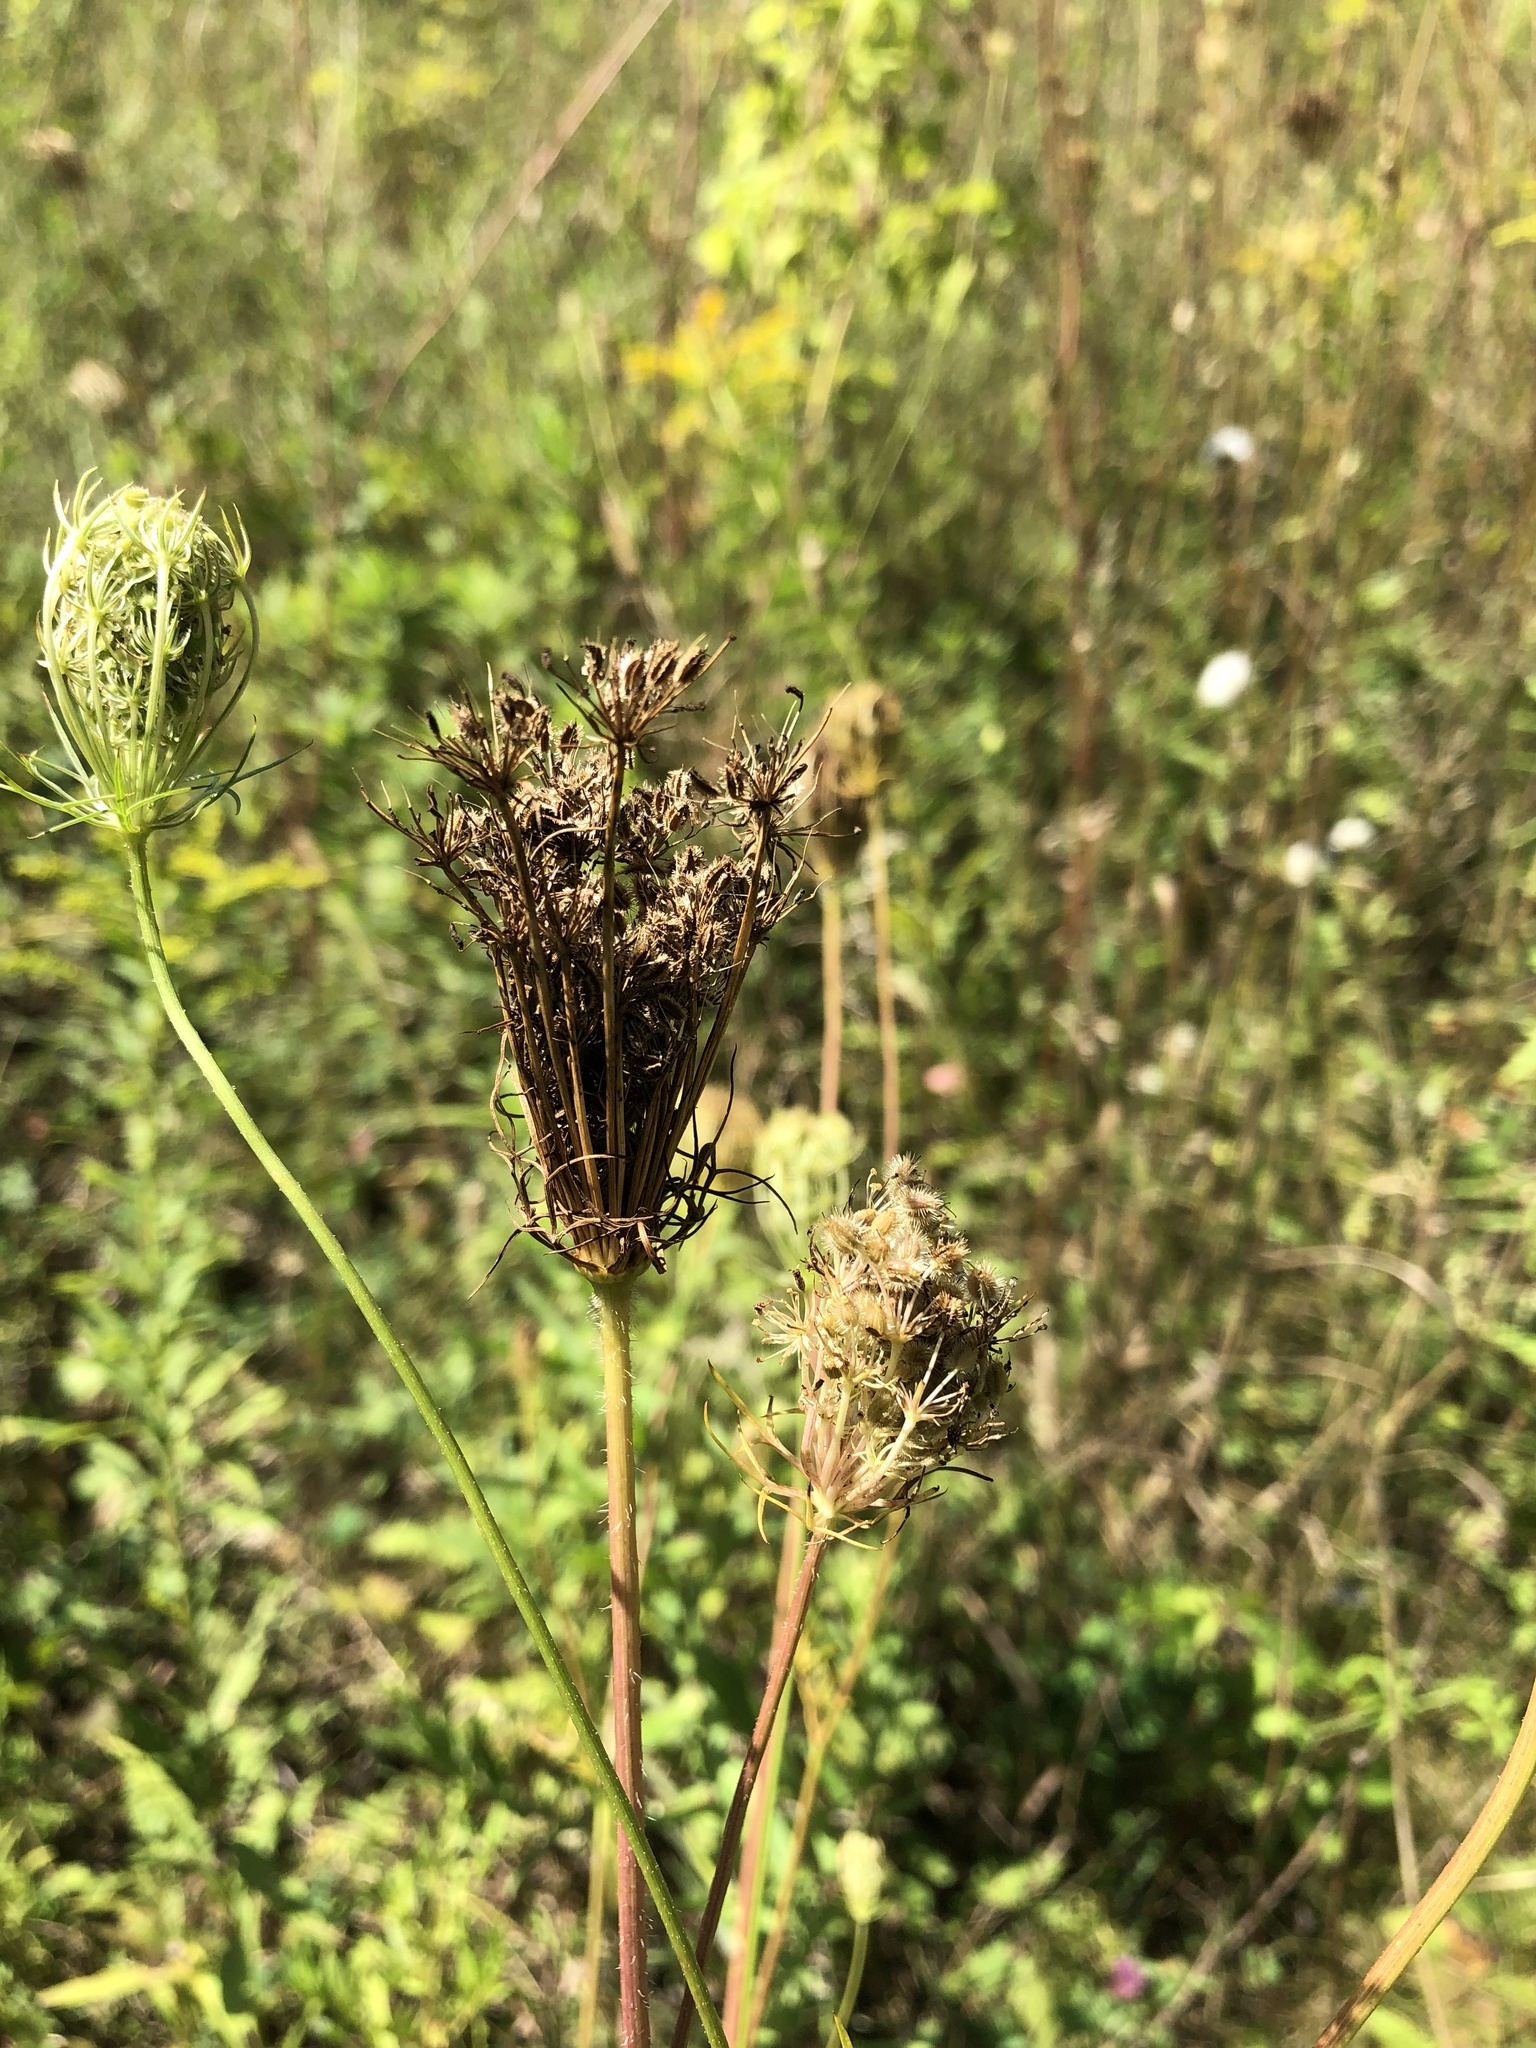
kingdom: Plantae
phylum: Tracheophyta
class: Magnoliopsida
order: Apiales
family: Apiaceae
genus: Daucus
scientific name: Daucus carota
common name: Wild carrot
